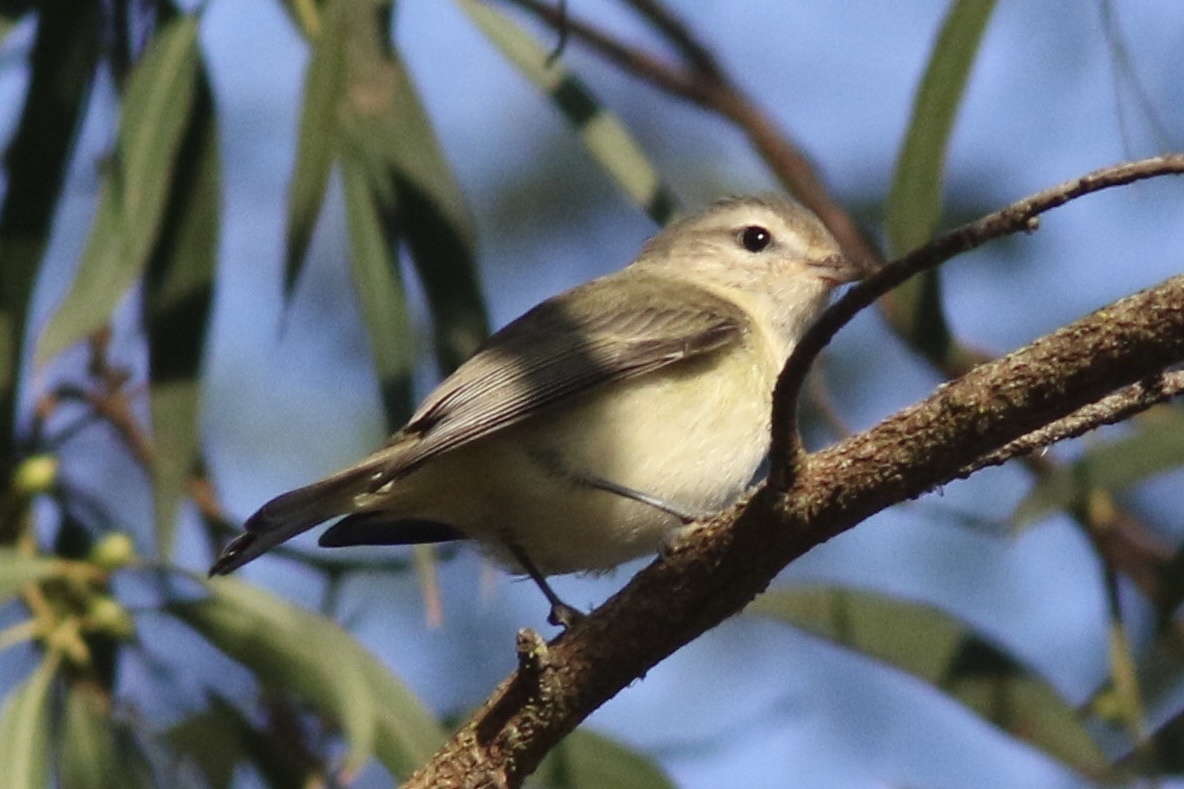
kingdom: Animalia
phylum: Chordata
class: Aves
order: Passeriformes
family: Vireonidae
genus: Vireo
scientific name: Vireo gilvus
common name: Warbling vireo
